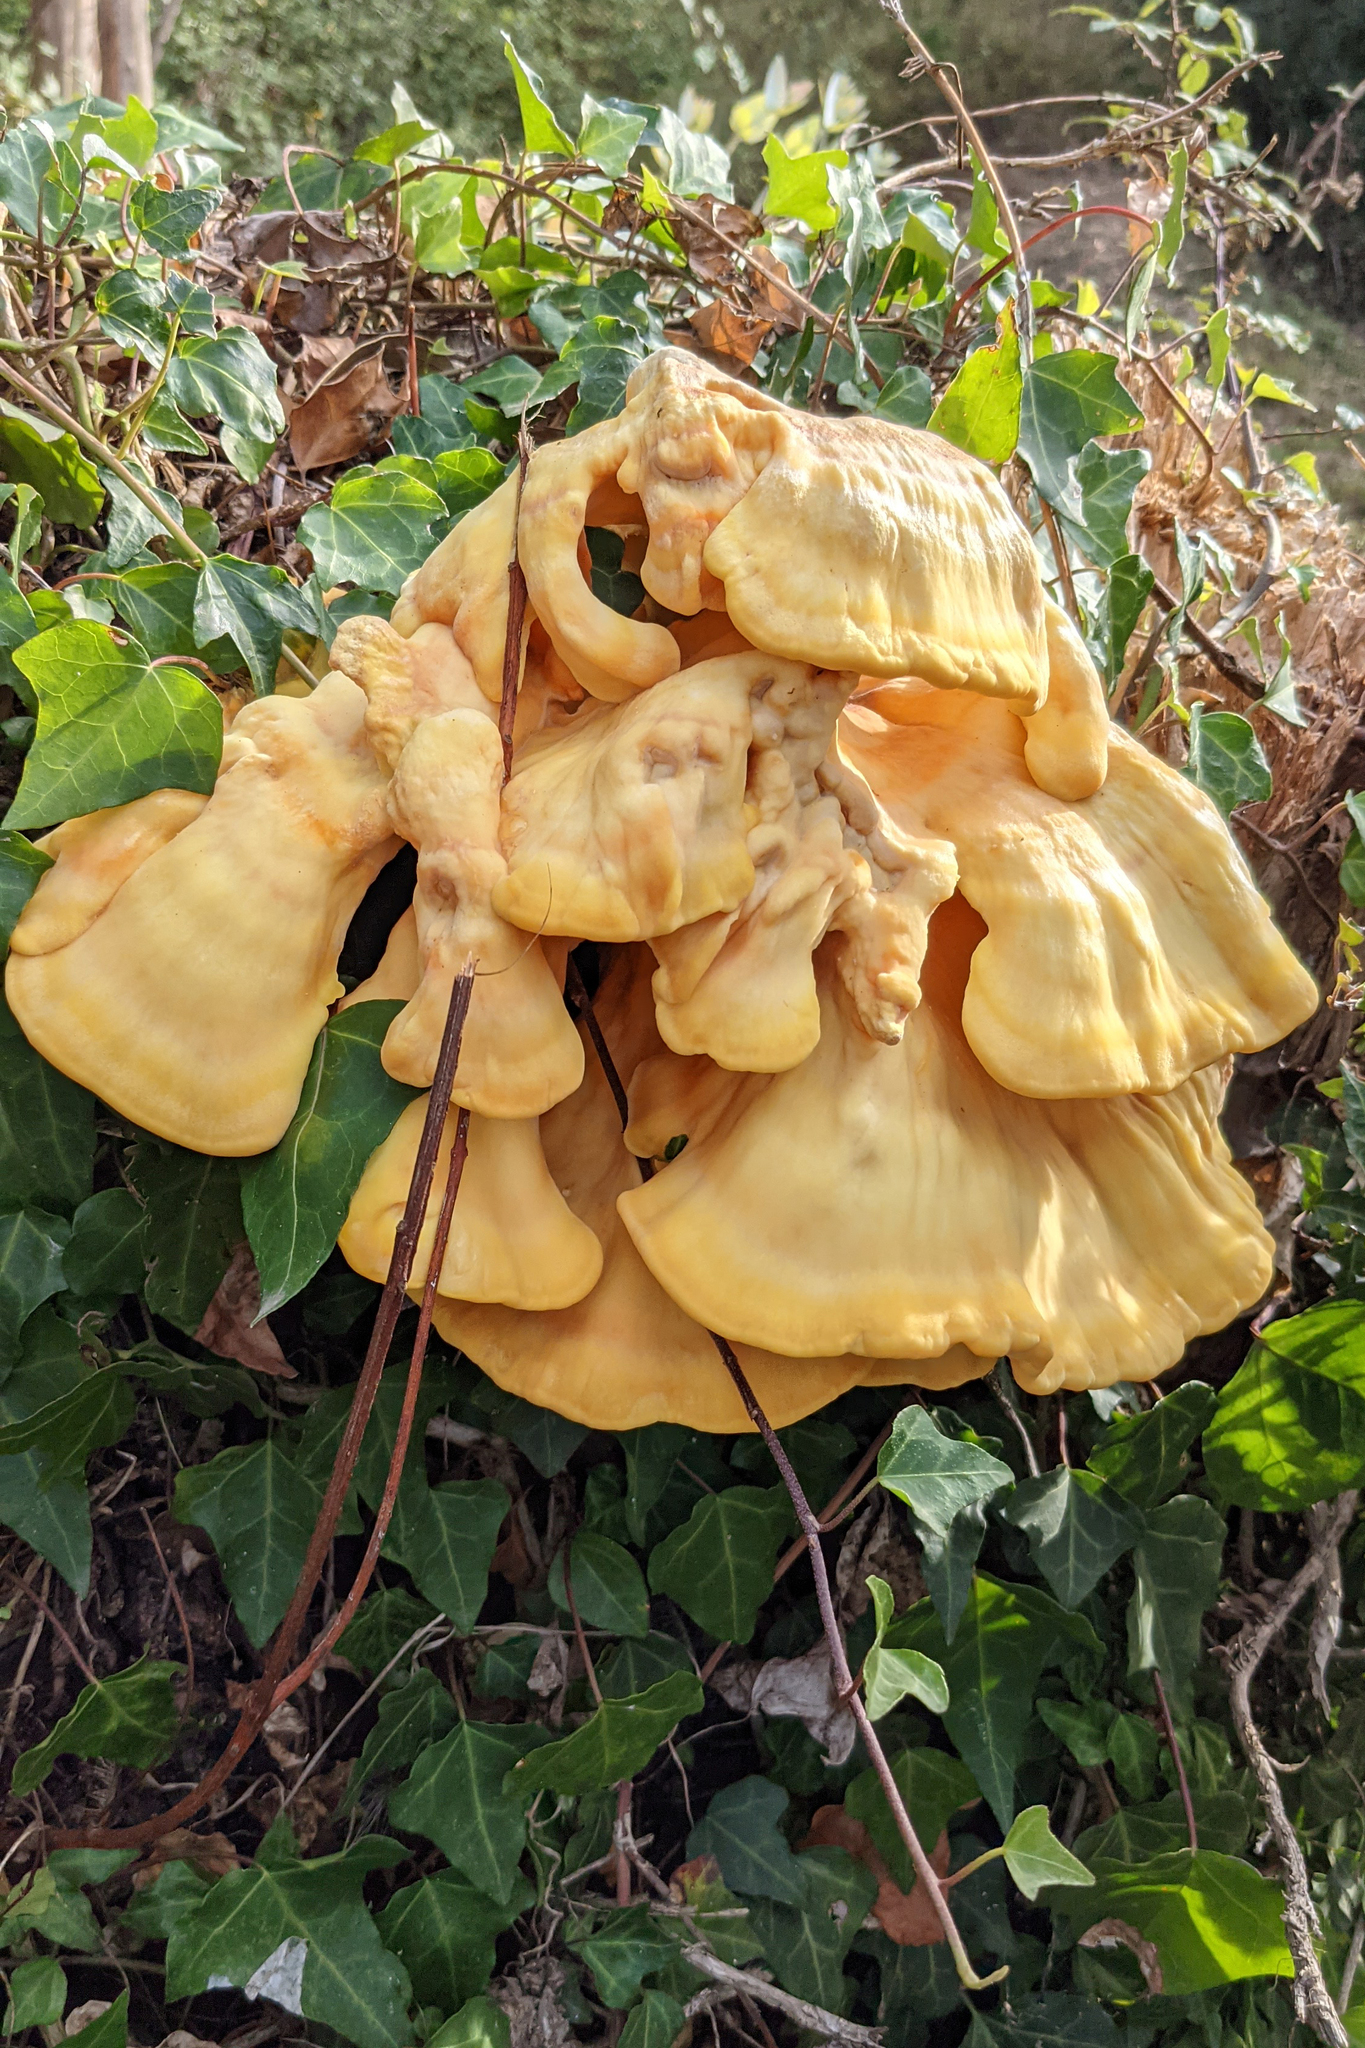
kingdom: Fungi
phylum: Basidiomycota
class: Agaricomycetes
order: Polyporales
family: Laetiporaceae
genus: Laetiporus
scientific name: Laetiporus sulphureus
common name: Chicken of the woods
